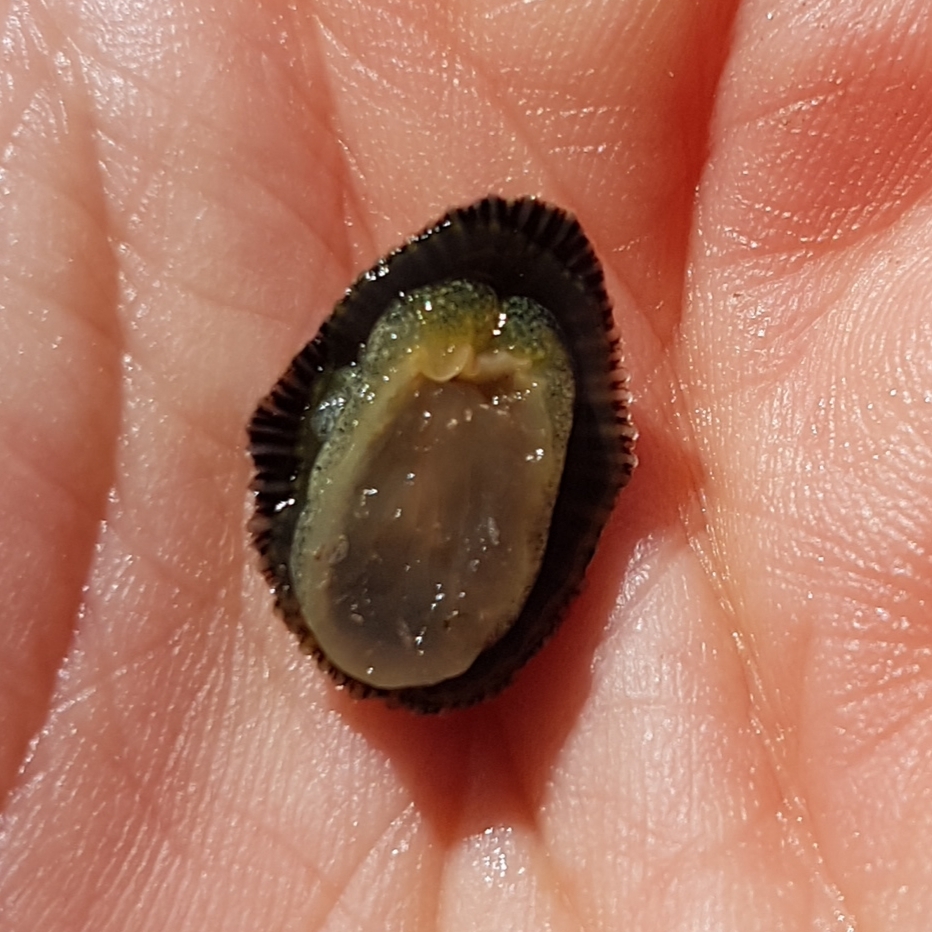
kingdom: Animalia
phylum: Mollusca
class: Gastropoda
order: Siphonariida
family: Siphonariidae
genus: Siphonaria
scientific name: Siphonaria pectinata
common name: Striped false limpet
